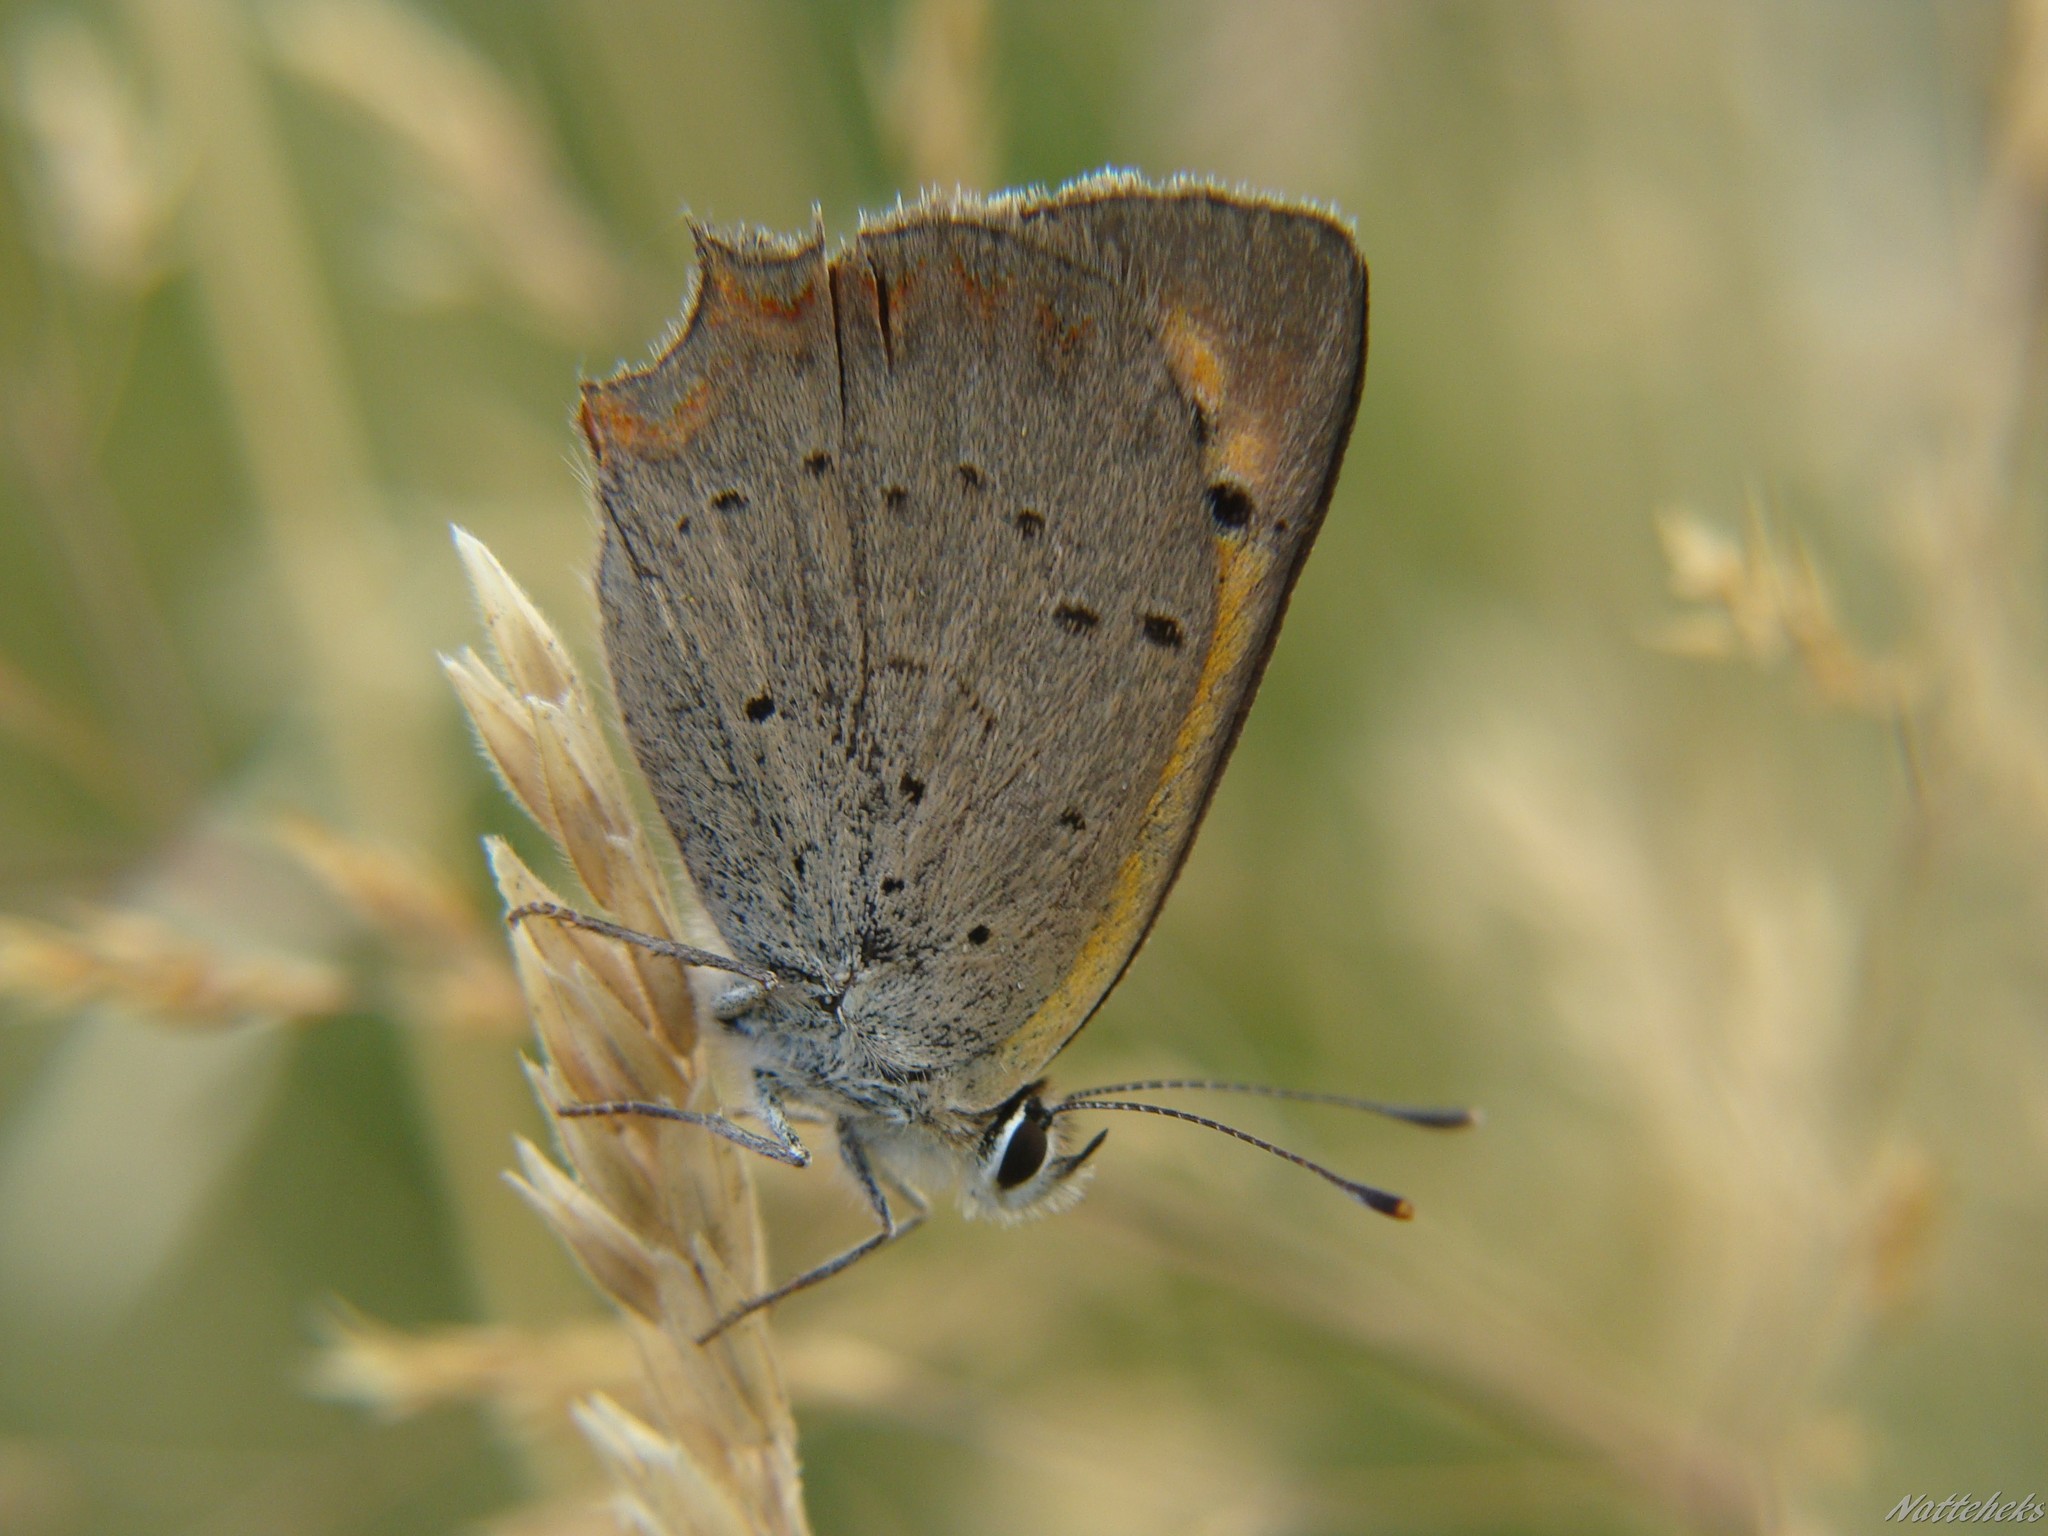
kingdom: Animalia
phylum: Arthropoda
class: Insecta
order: Lepidoptera
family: Lycaenidae
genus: Lycaena
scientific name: Lycaena phlaeas
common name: Small copper
